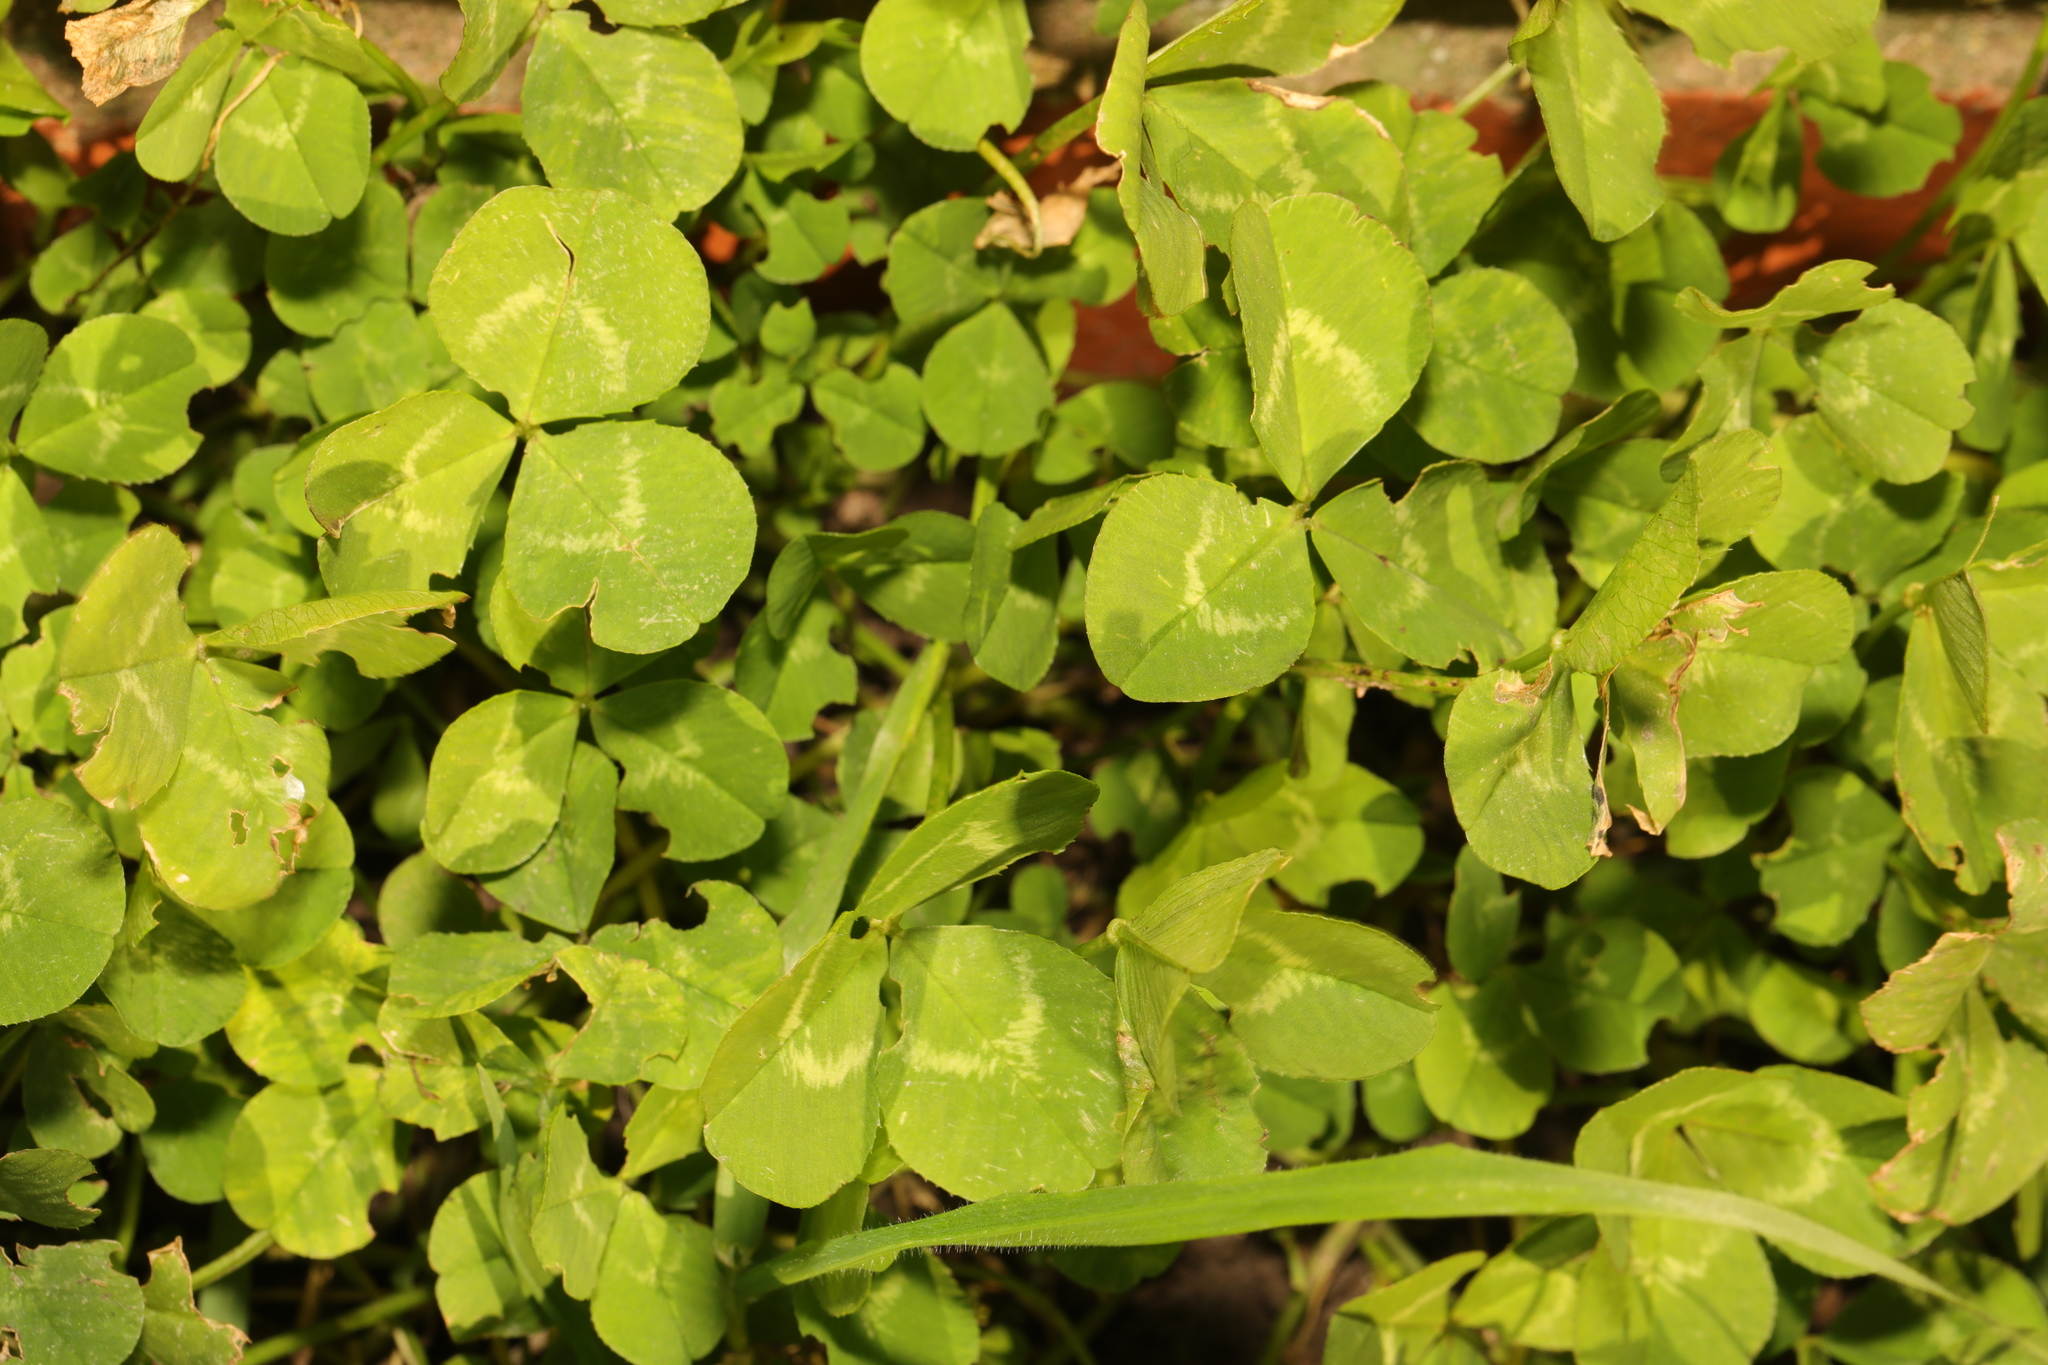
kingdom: Plantae
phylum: Tracheophyta
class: Magnoliopsida
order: Fabales
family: Fabaceae
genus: Trifolium
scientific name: Trifolium repens
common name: White clover
